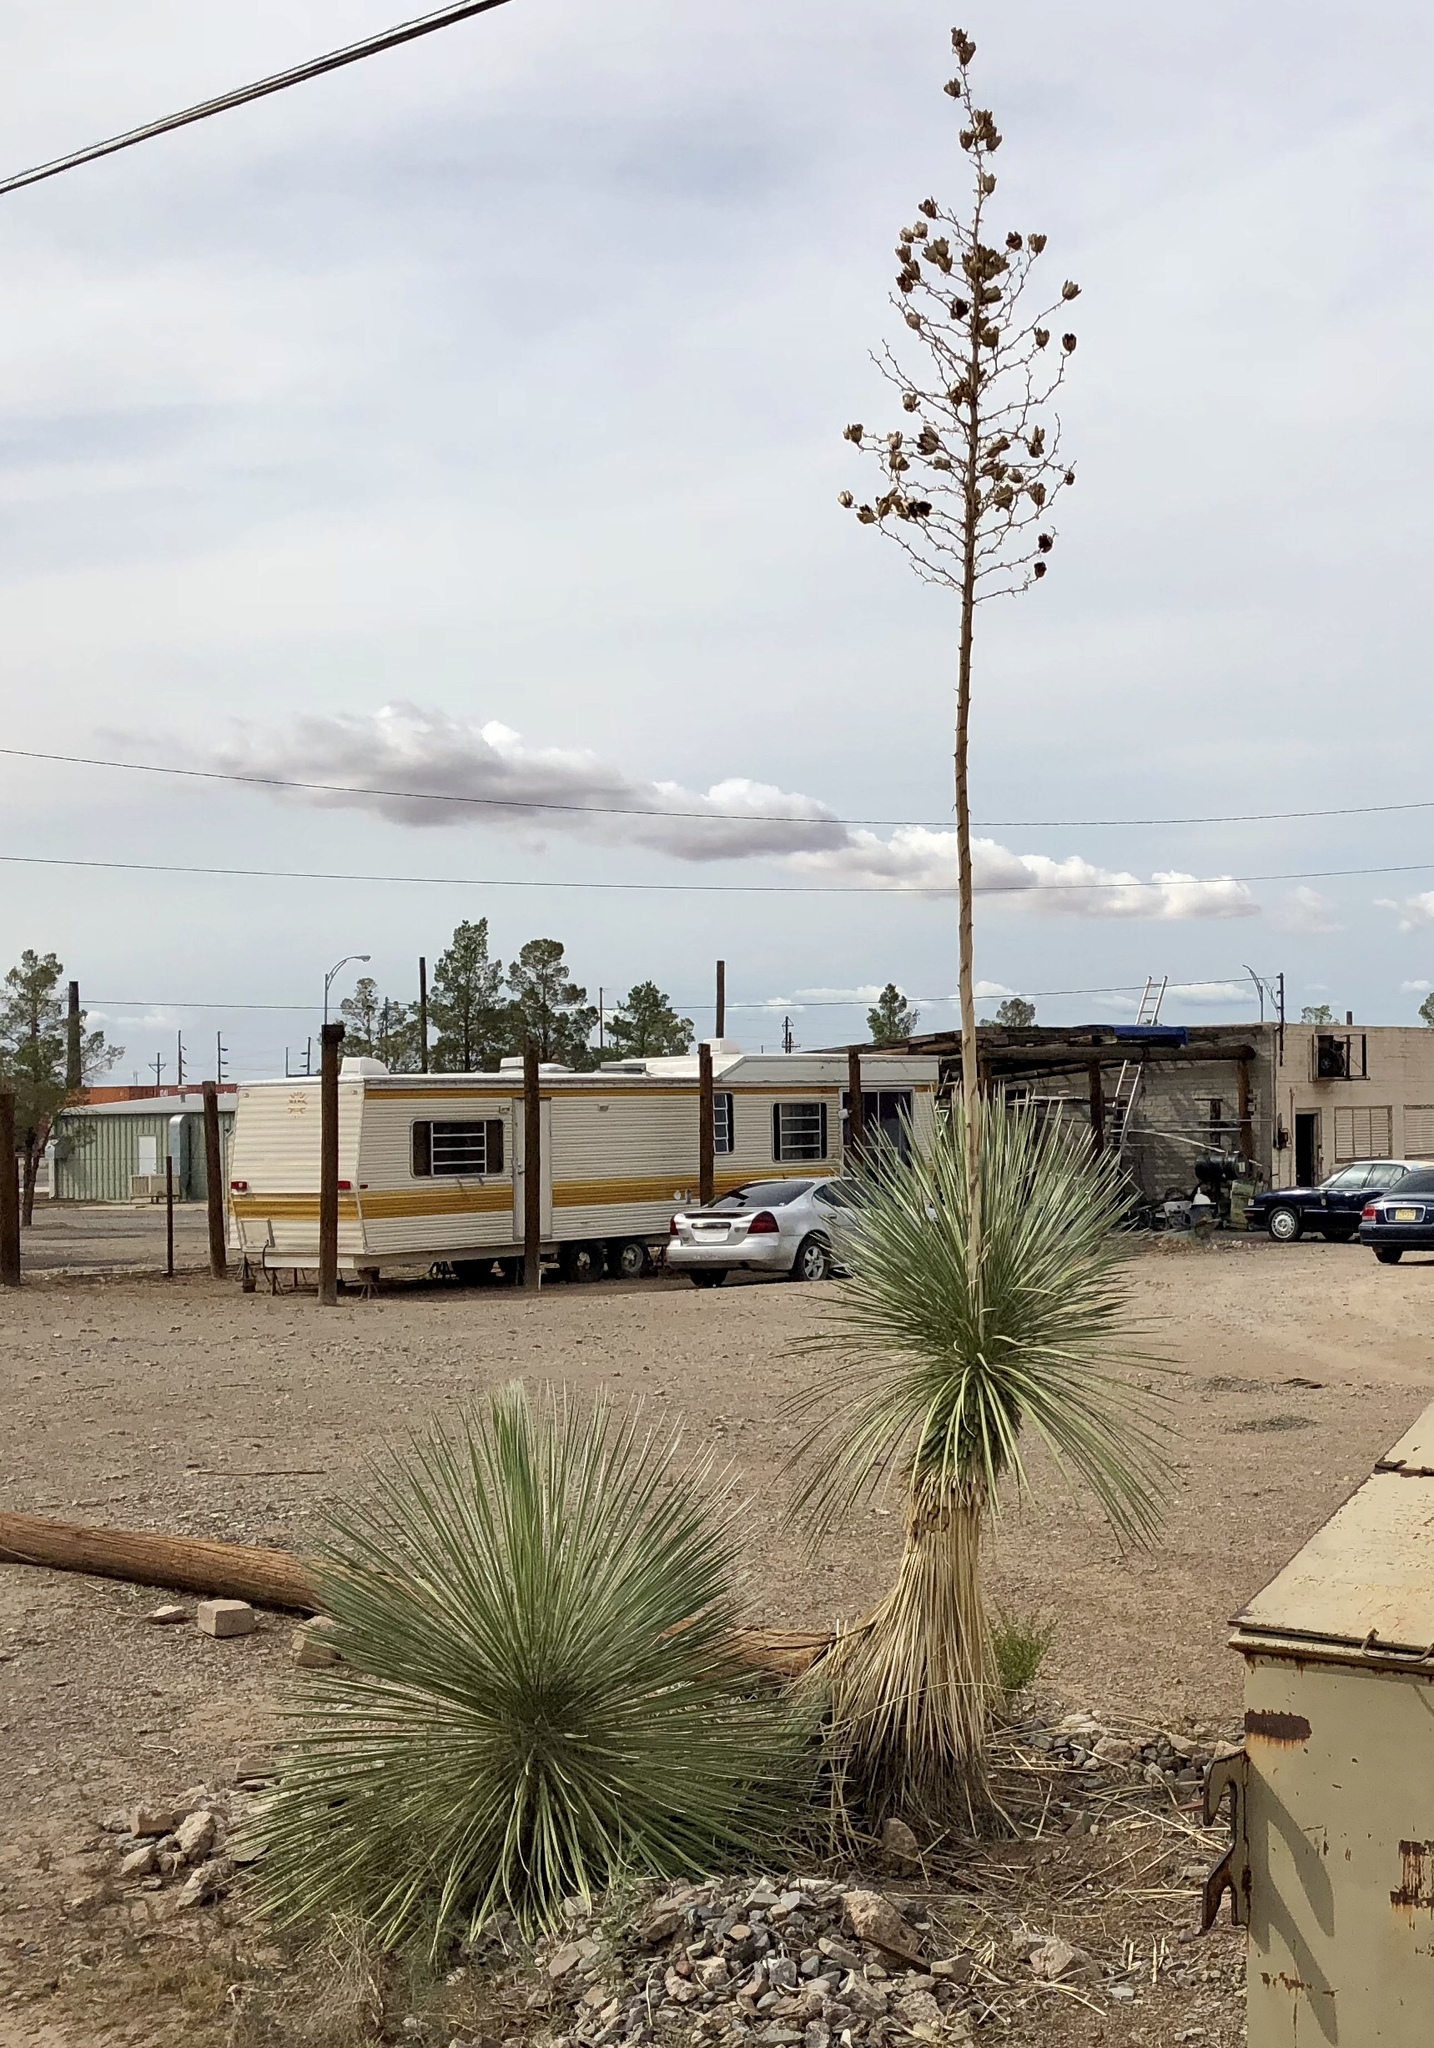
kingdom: Plantae
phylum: Tracheophyta
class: Liliopsida
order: Asparagales
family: Asparagaceae
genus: Yucca
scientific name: Yucca elata
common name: Palmella
